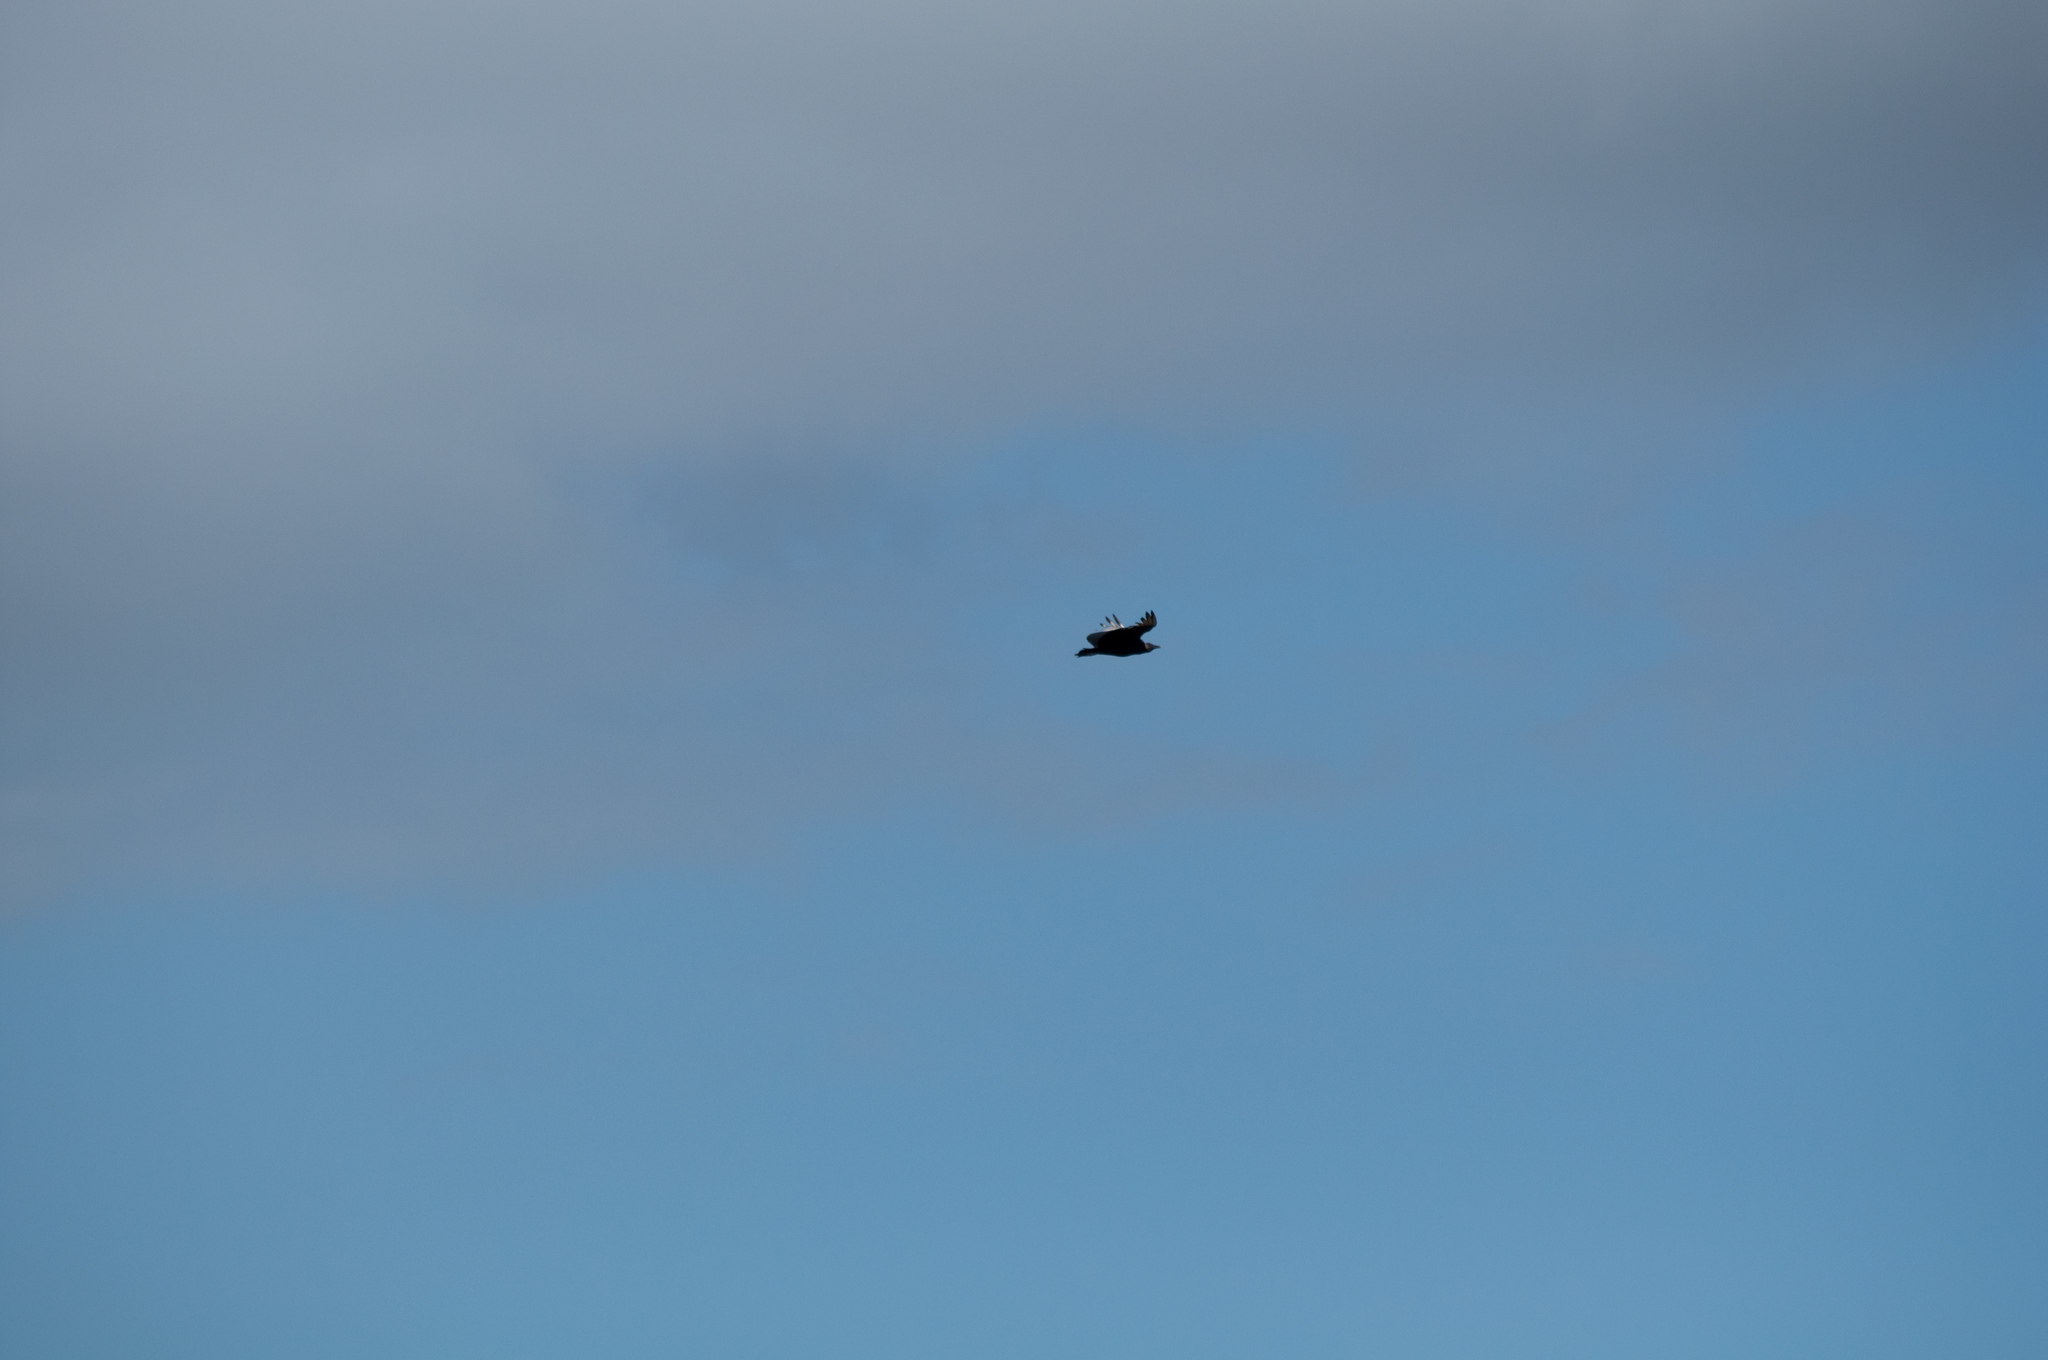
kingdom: Animalia
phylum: Chordata
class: Aves
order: Accipitriformes
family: Cathartidae
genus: Coragyps
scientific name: Coragyps atratus
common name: Black vulture
